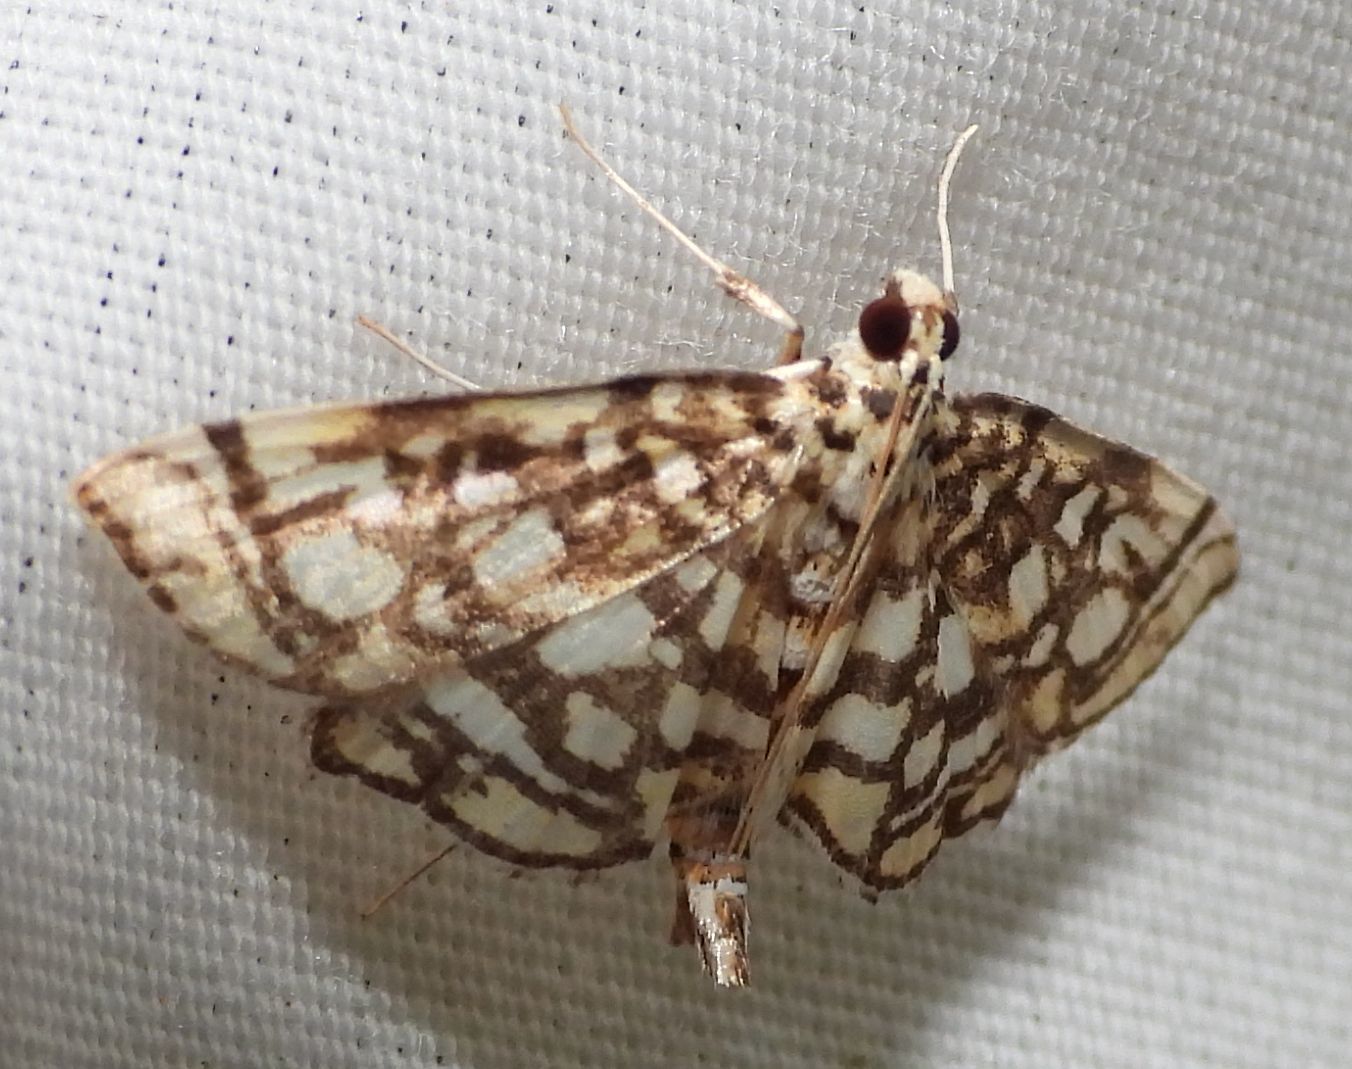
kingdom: Animalia
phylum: Arthropoda
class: Insecta
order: Lepidoptera
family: Crambidae
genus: Lygropia
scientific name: Lygropia rivulalis
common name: Bog lygropia moth
